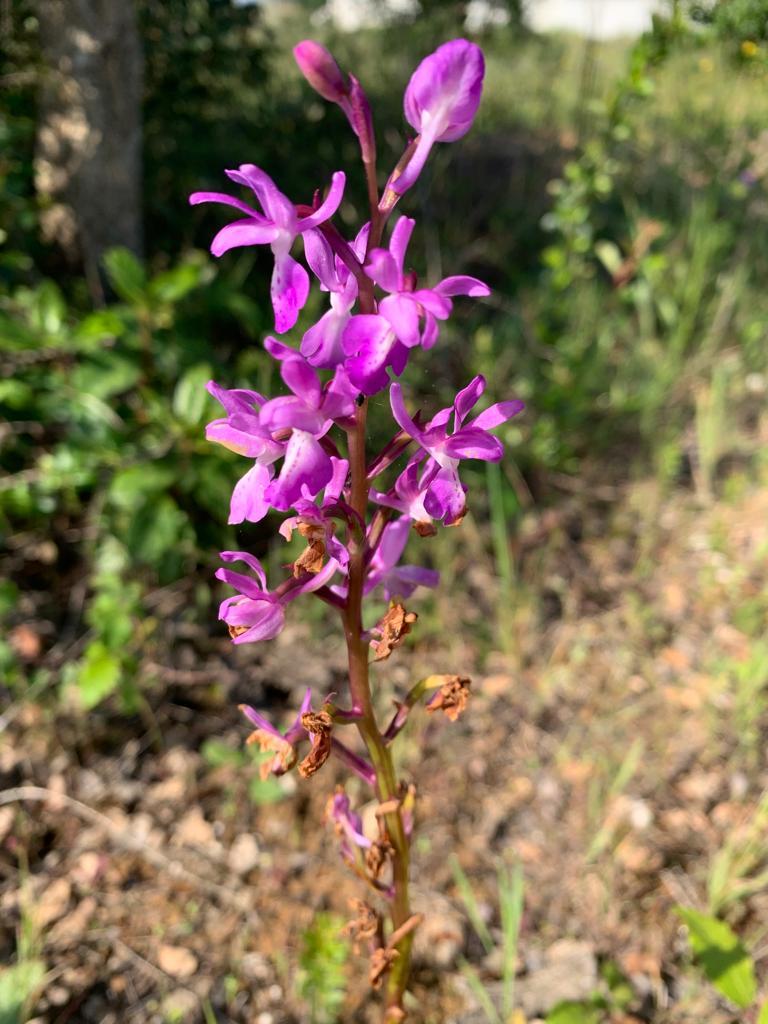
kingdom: Plantae
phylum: Tracheophyta
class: Liliopsida
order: Asparagales
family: Orchidaceae
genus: Orchis
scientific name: Orchis mascula
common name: Early-purple orchid
